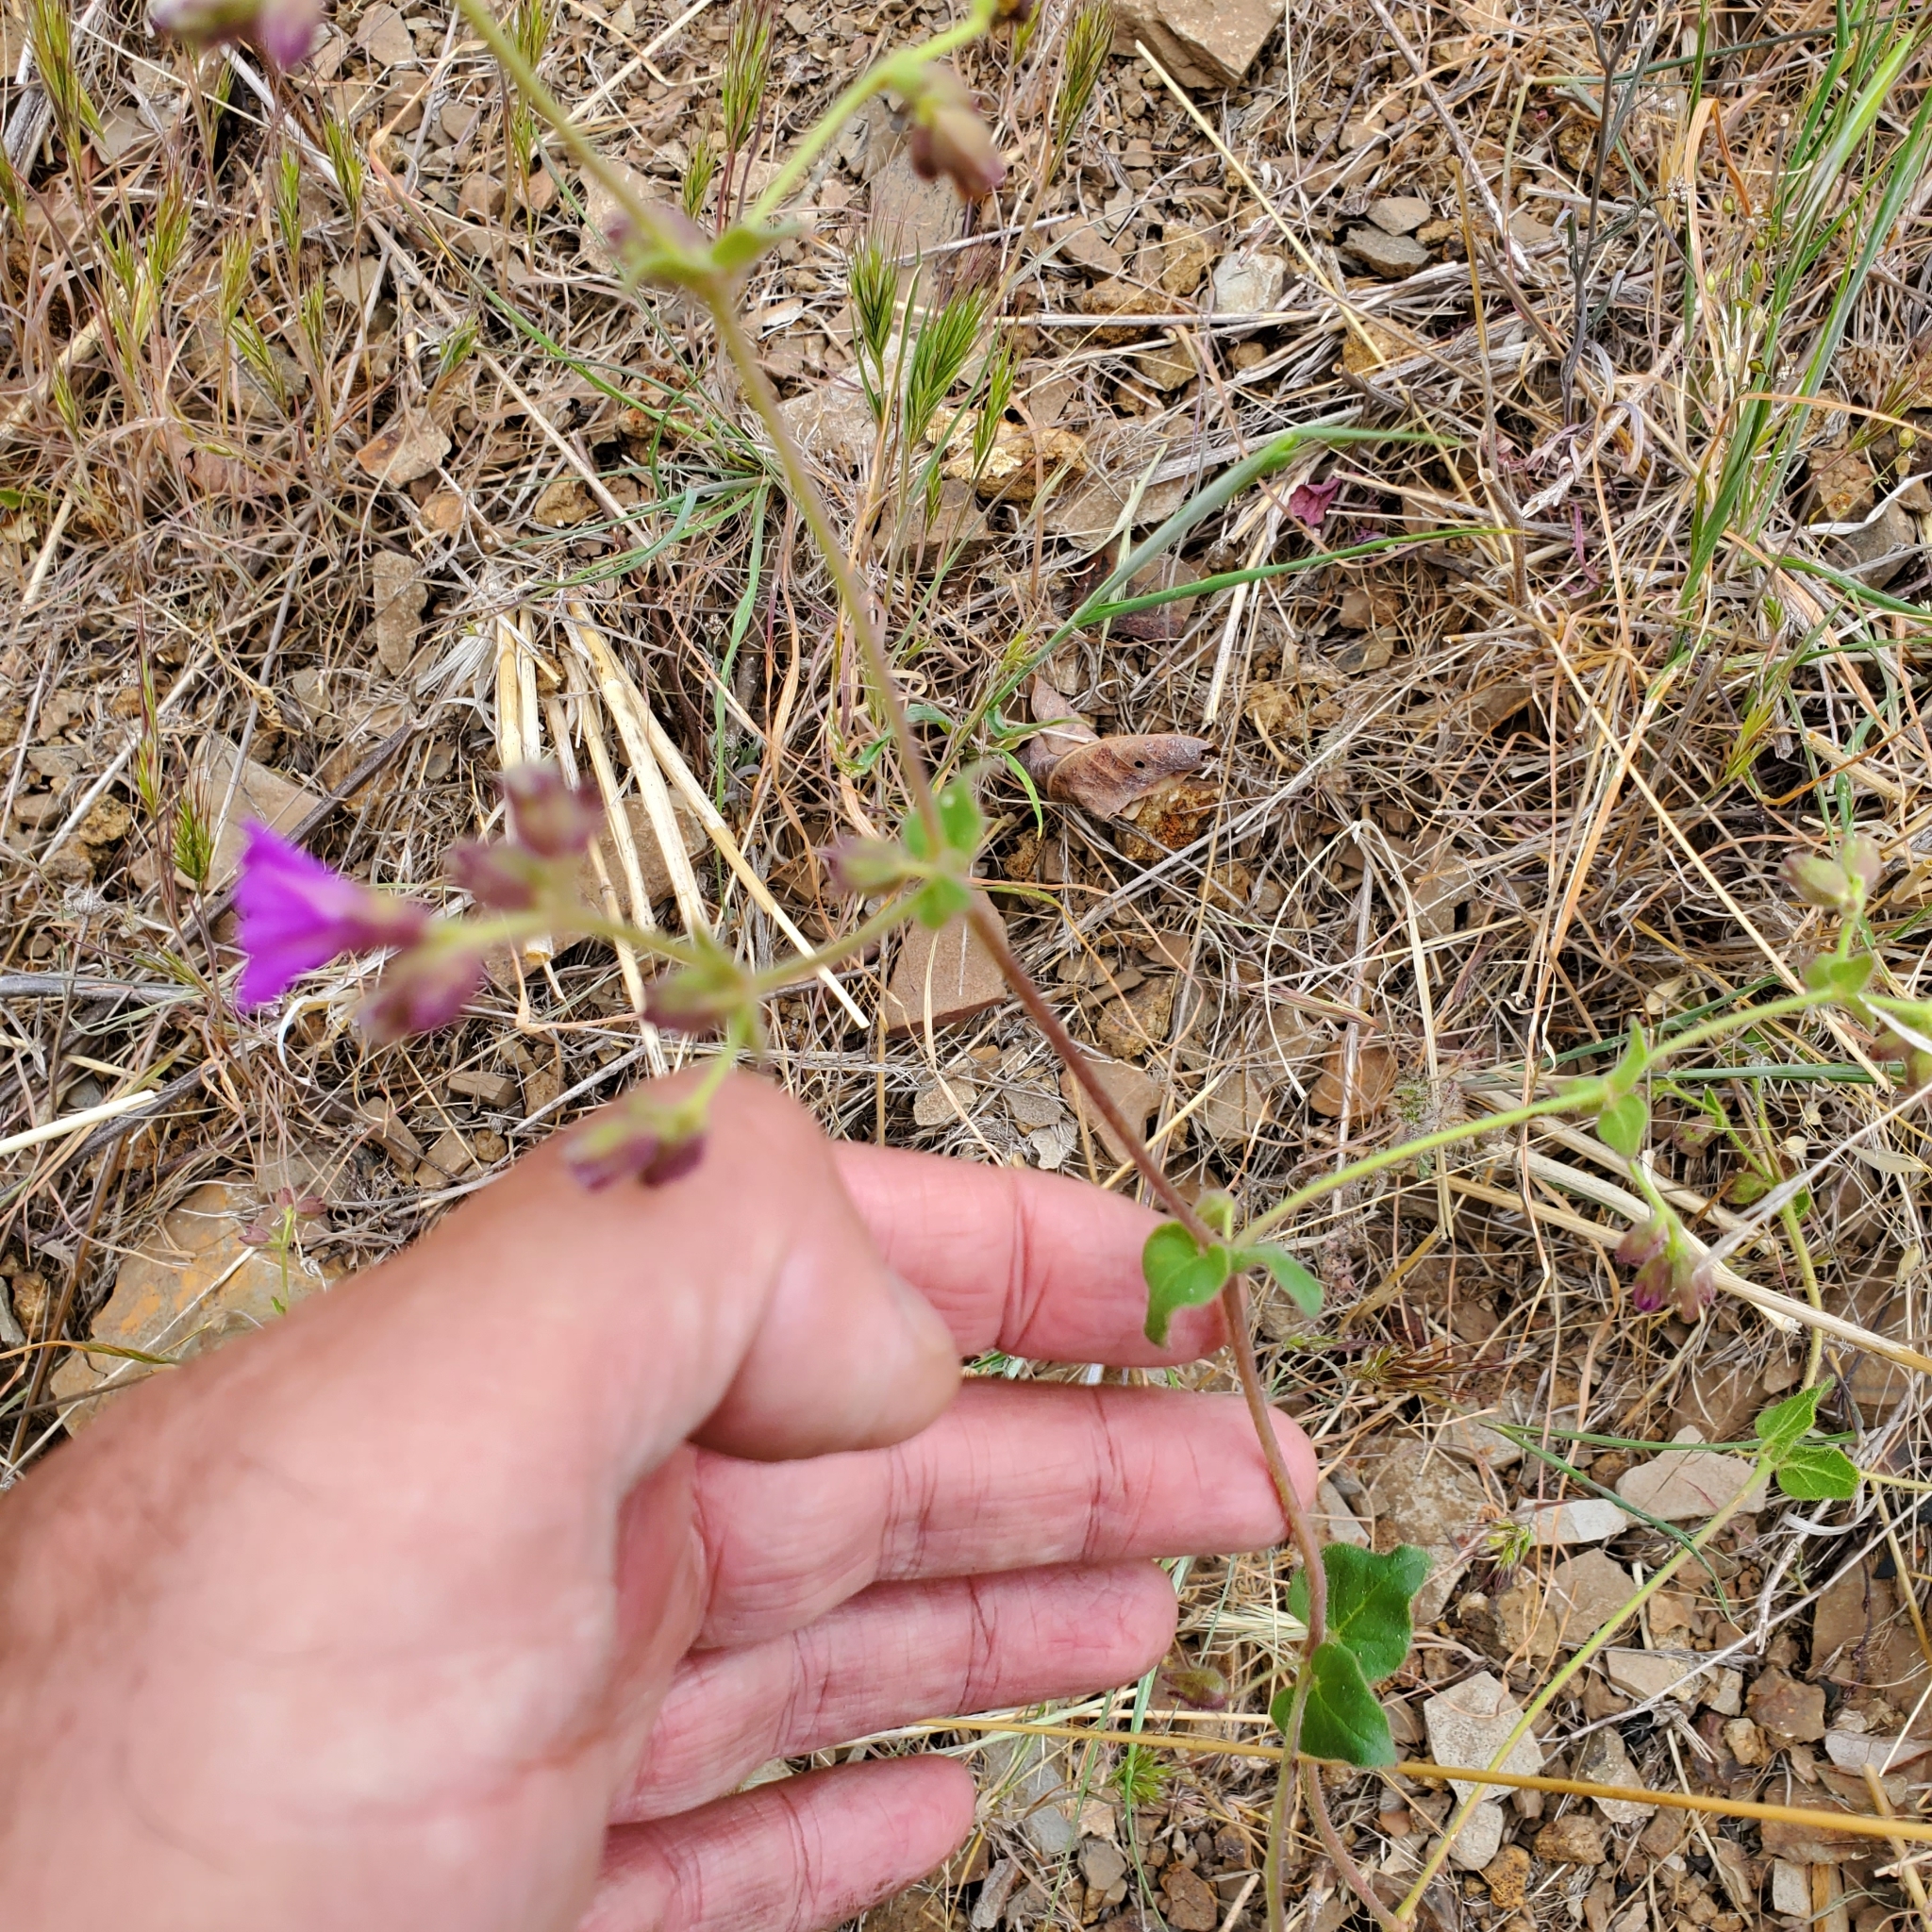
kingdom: Plantae
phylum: Tracheophyta
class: Magnoliopsida
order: Caryophyllales
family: Nyctaginaceae
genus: Mirabilis
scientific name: Mirabilis laevis
